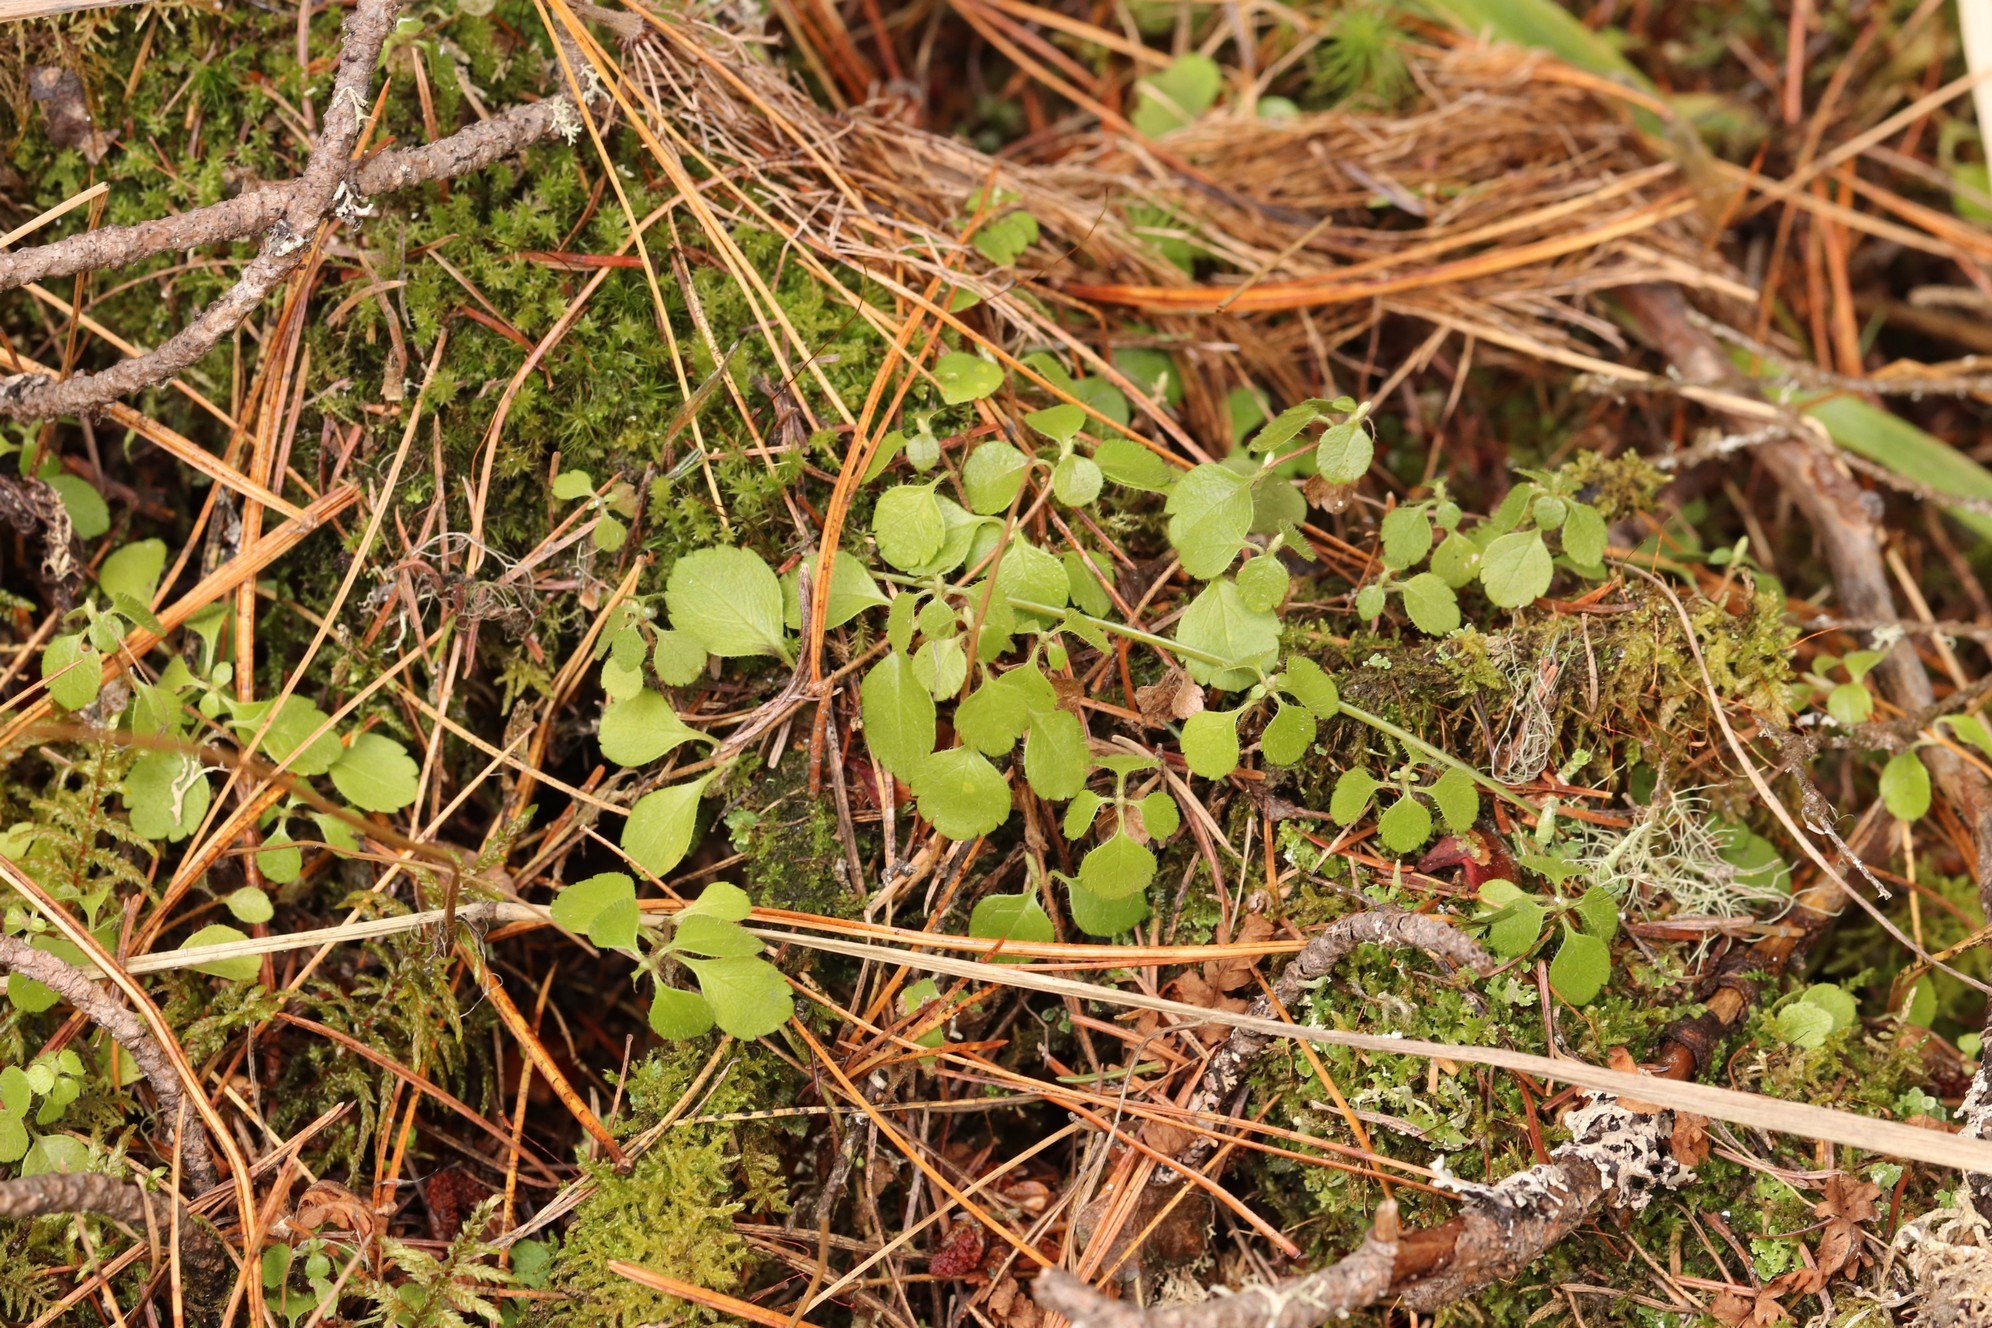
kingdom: Plantae
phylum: Tracheophyta
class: Magnoliopsida
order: Dipsacales
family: Caprifoliaceae
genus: Linnaea
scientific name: Linnaea borealis
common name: Twinflower
